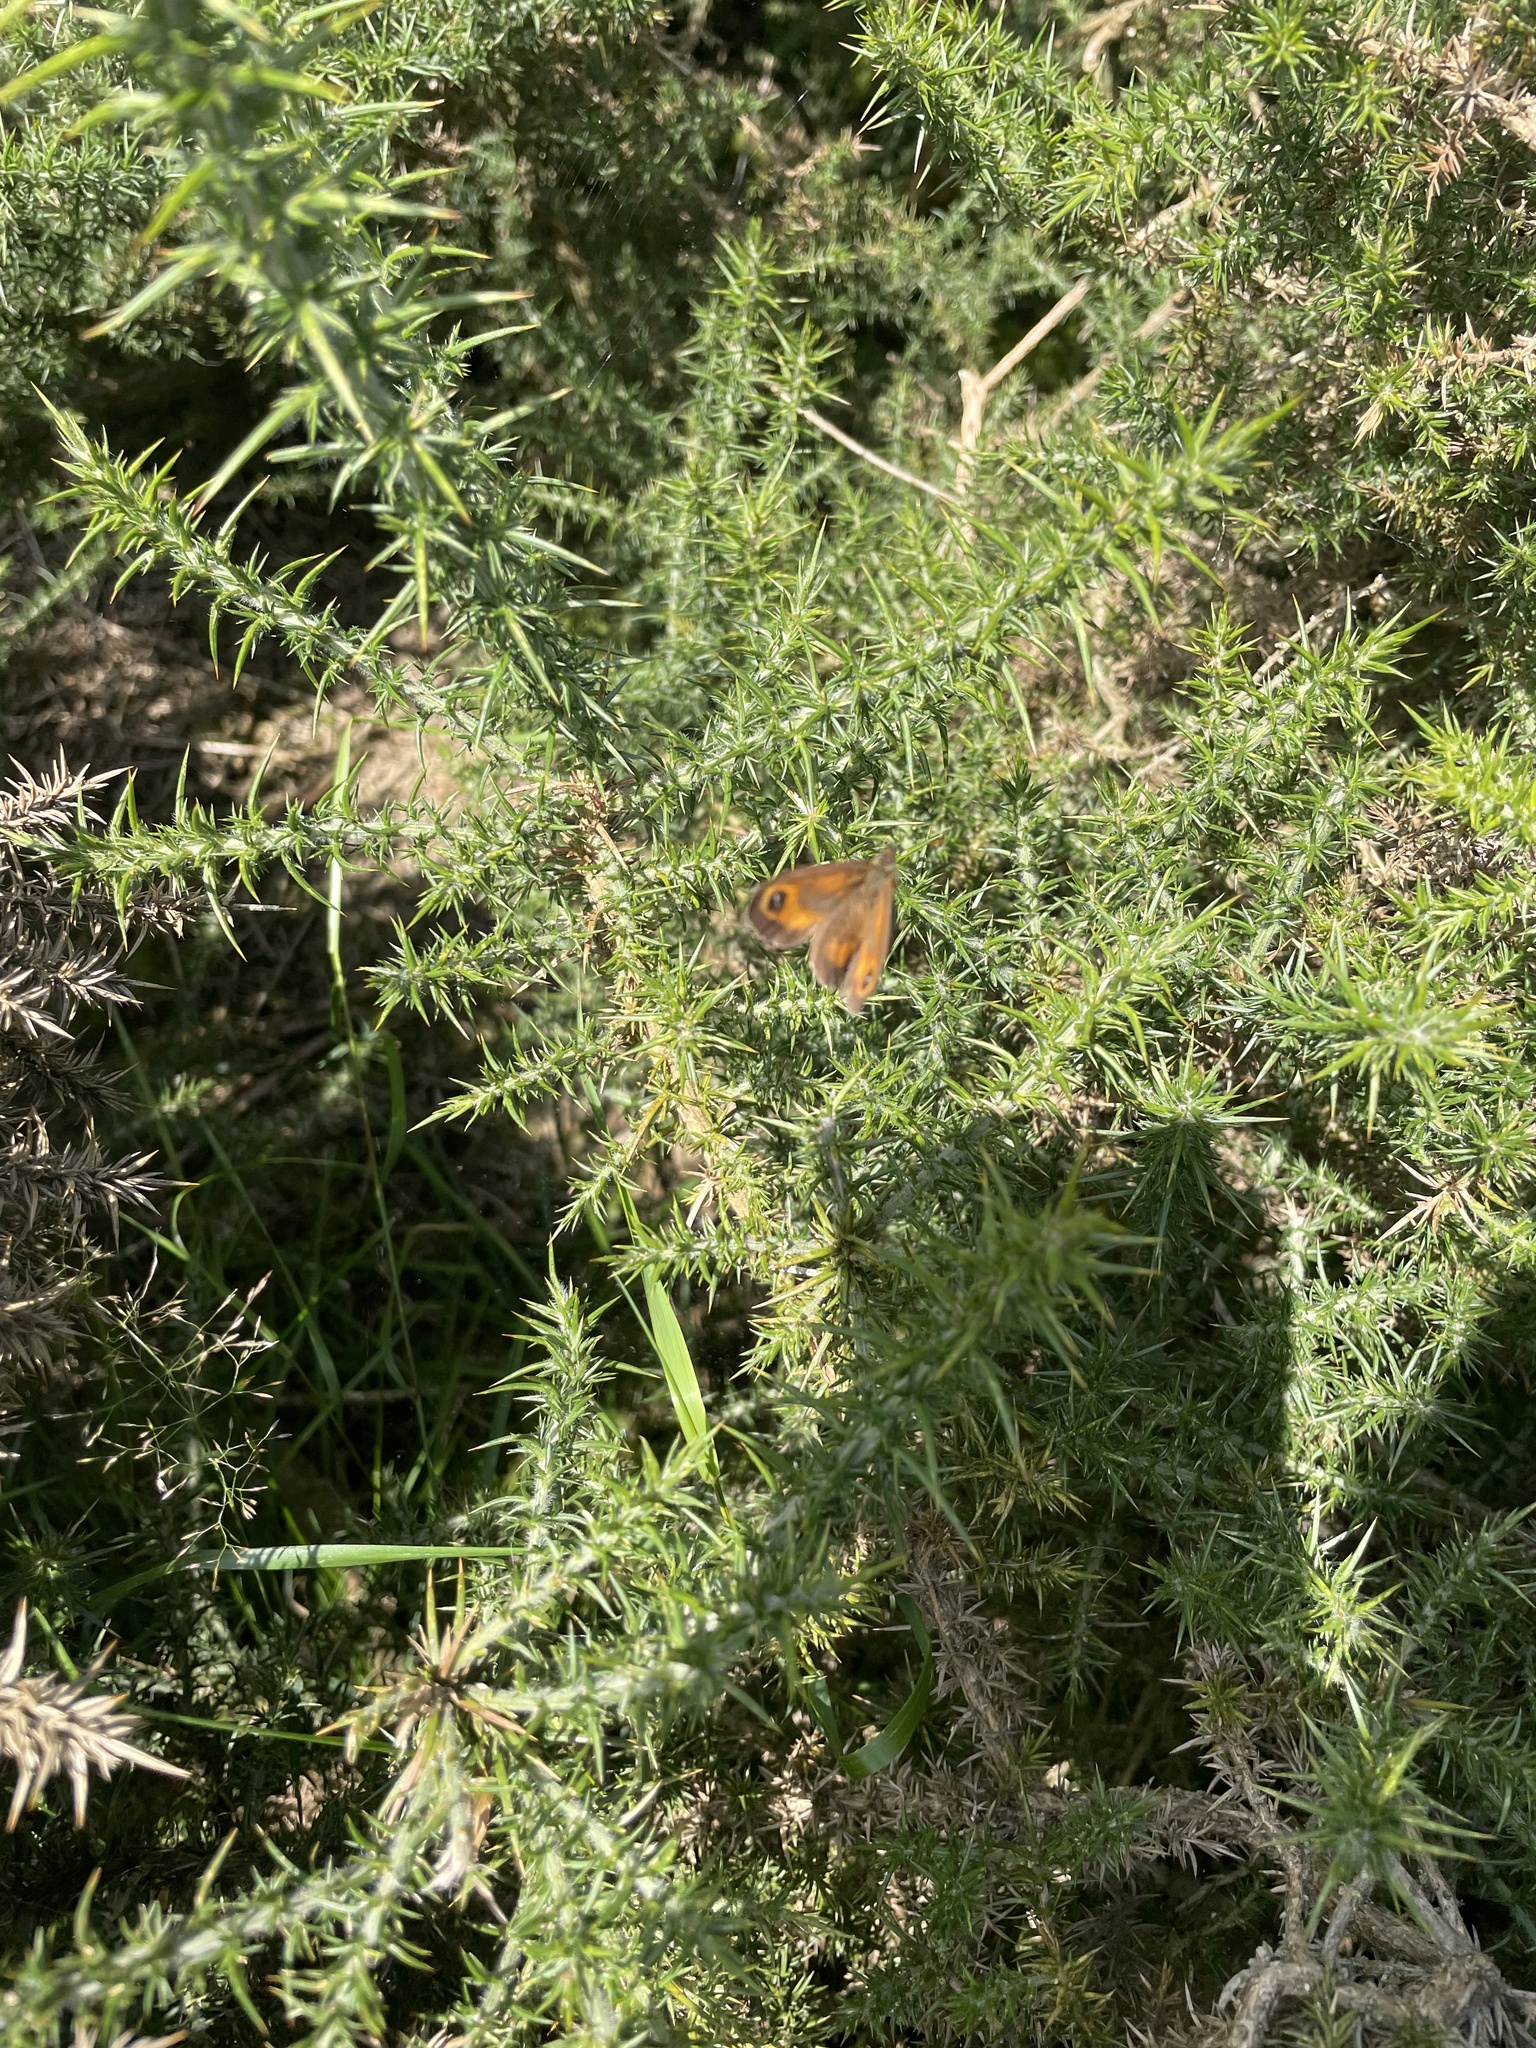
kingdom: Animalia
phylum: Arthropoda
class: Insecta
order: Lepidoptera
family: Nymphalidae
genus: Pyronia
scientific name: Pyronia tithonus
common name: Gatekeeper
